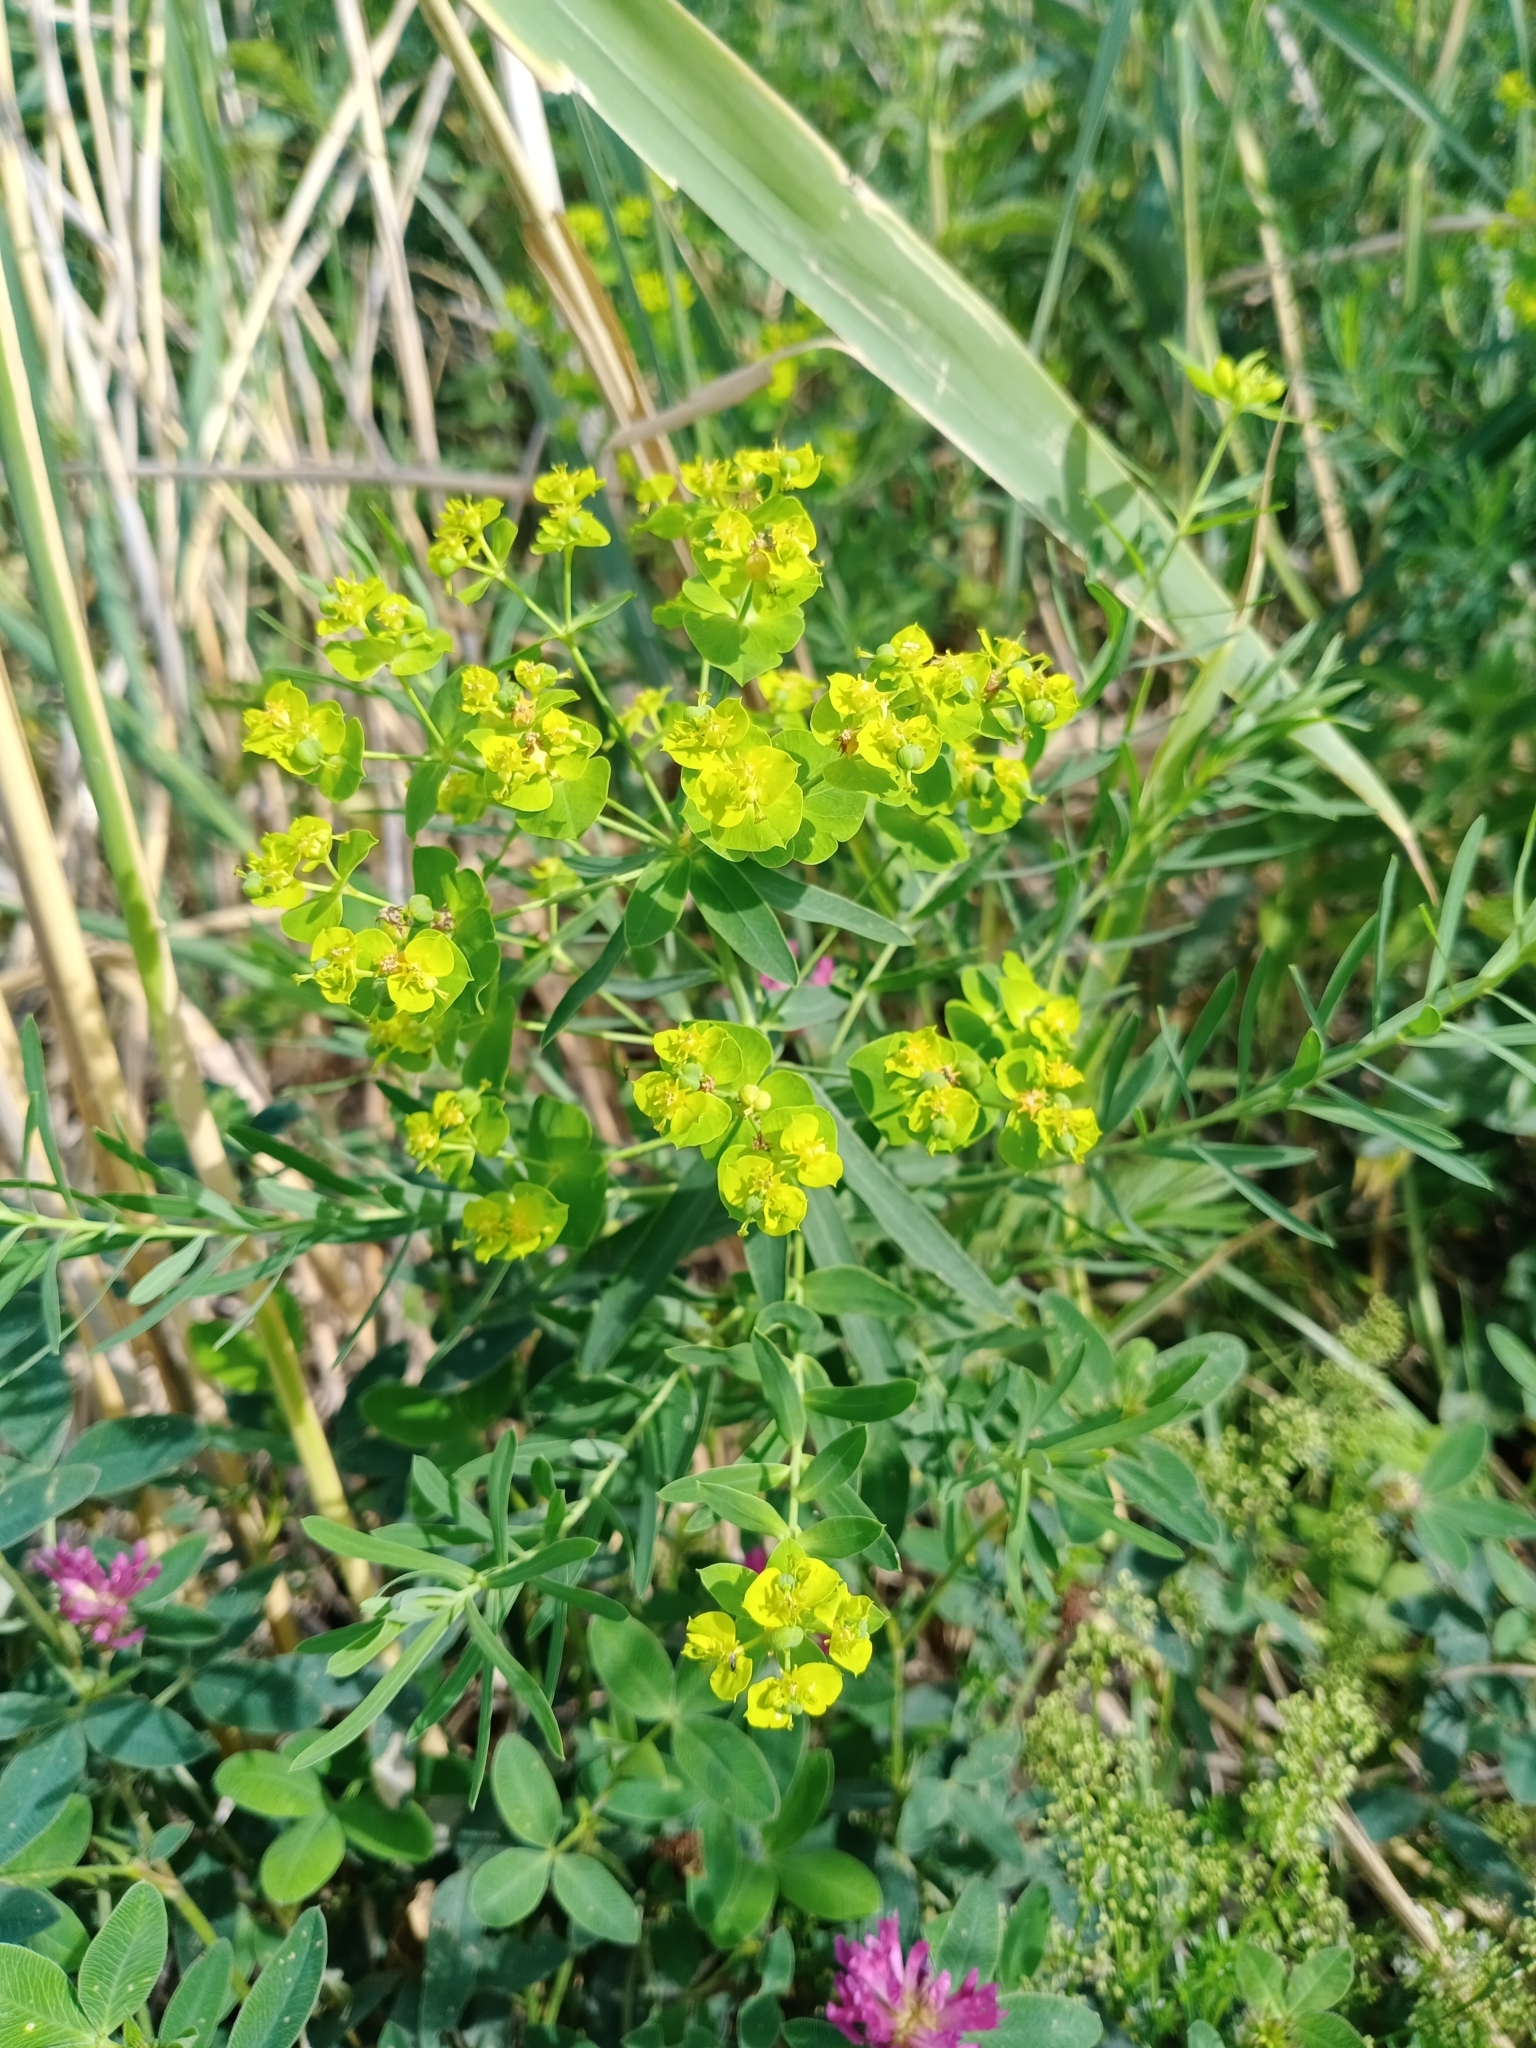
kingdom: Plantae
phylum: Tracheophyta
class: Magnoliopsida
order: Malpighiales
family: Euphorbiaceae
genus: Euphorbia
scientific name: Euphorbia virgata
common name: Leafy spurge
